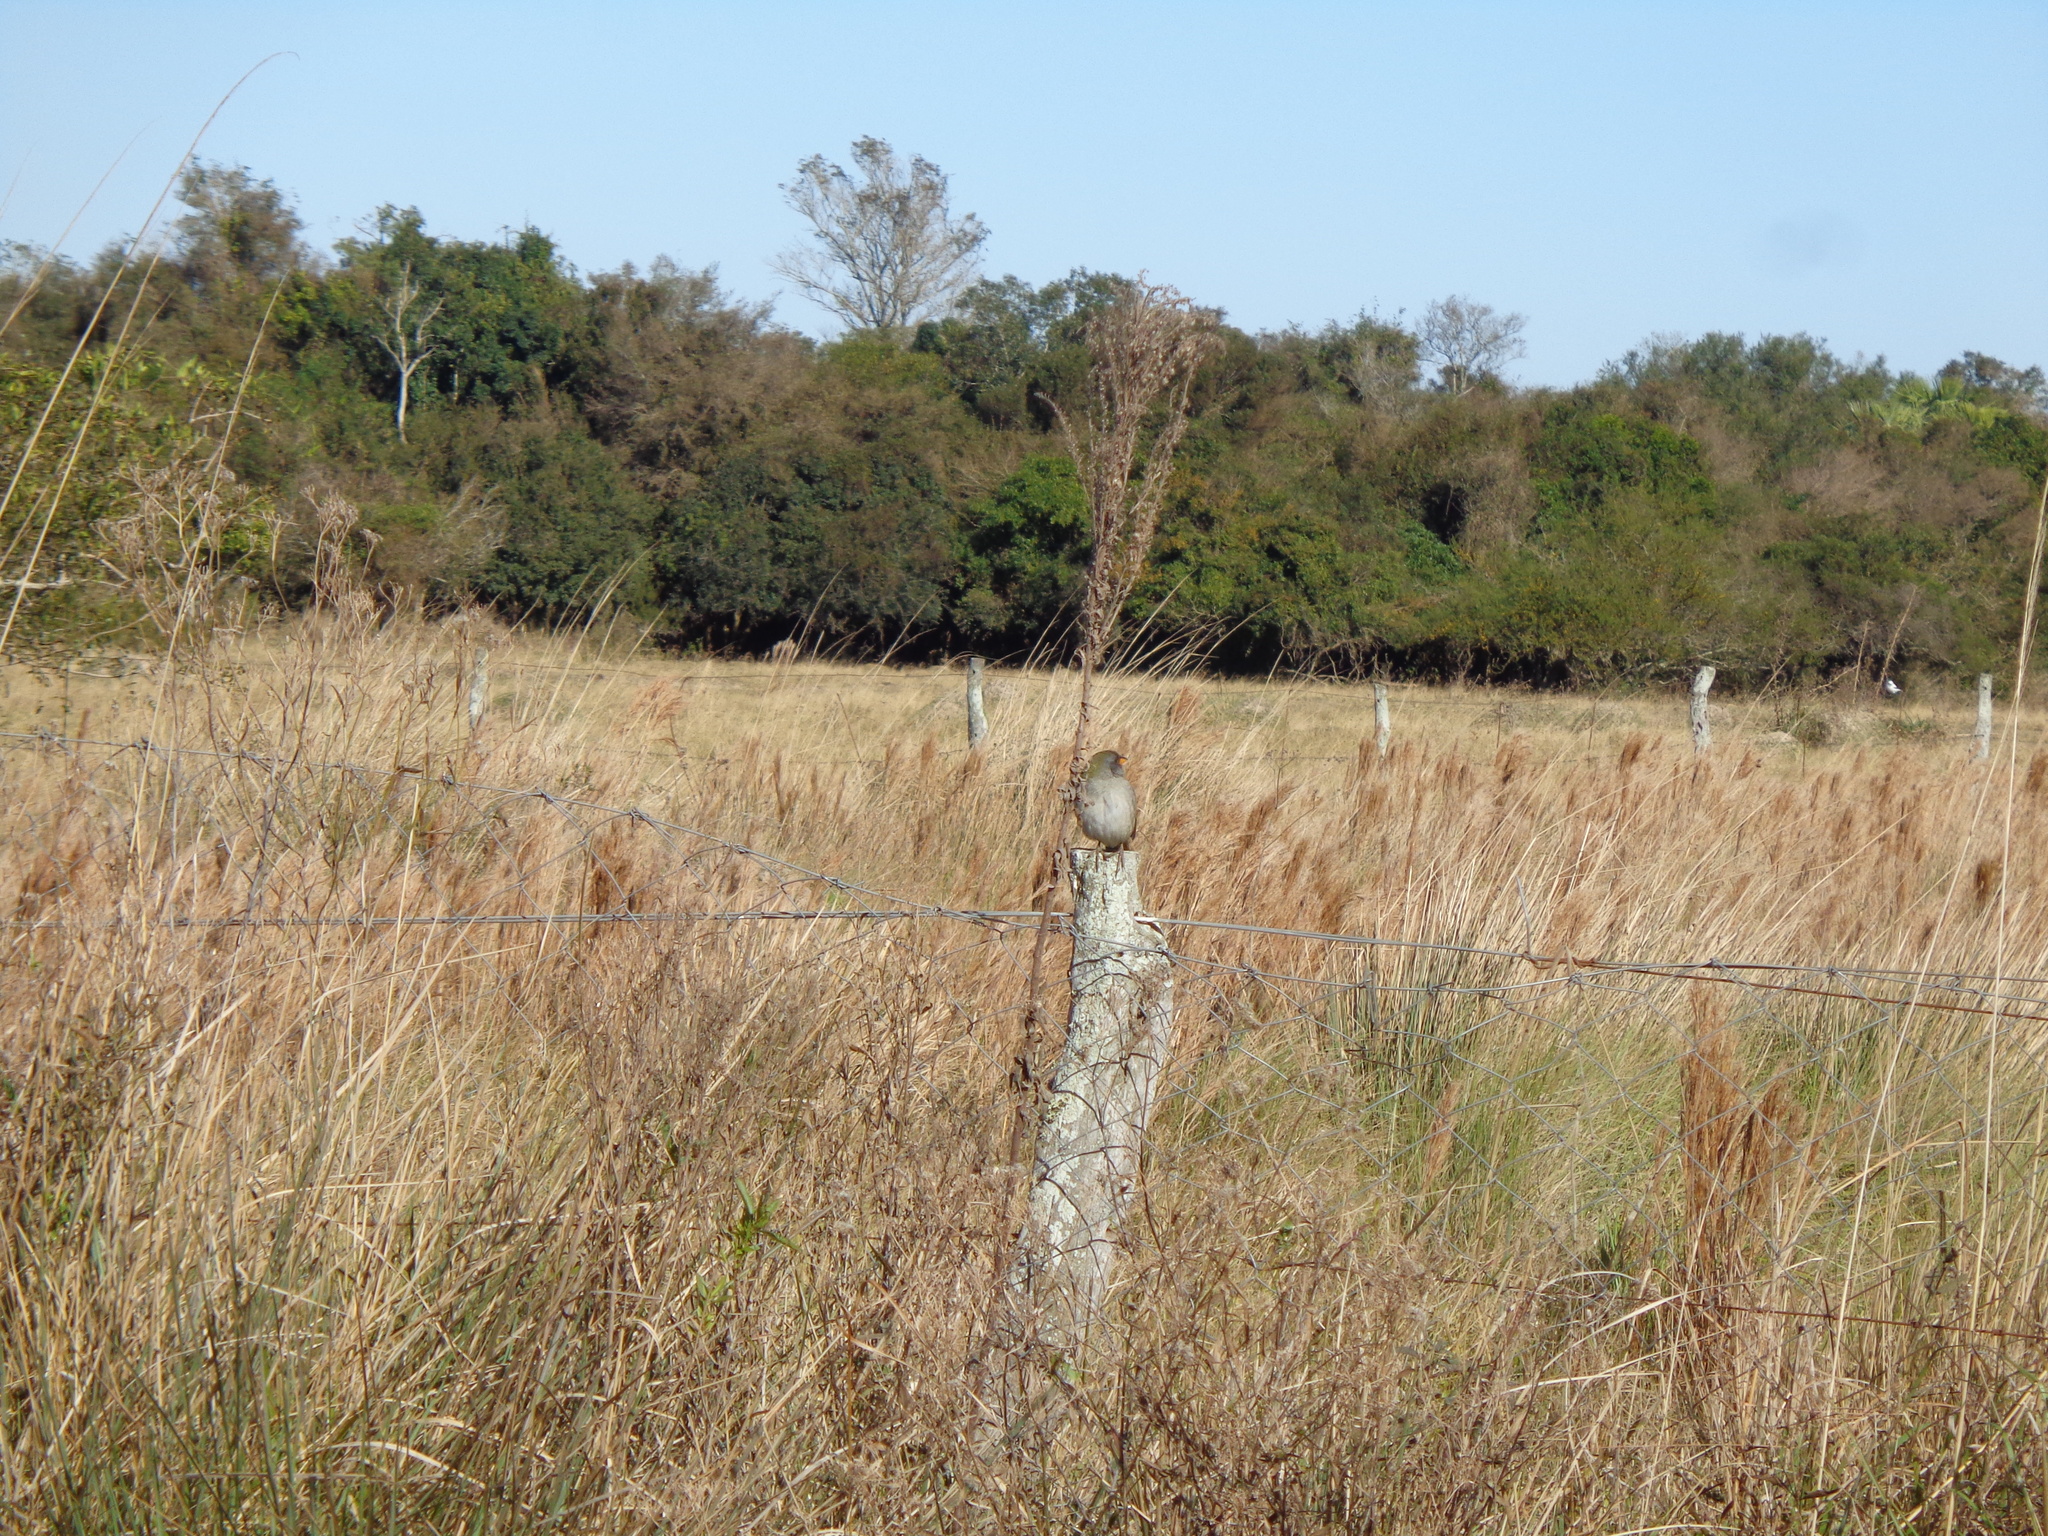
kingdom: Animalia
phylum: Chordata
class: Aves
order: Passeriformes
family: Thraupidae
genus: Embernagra
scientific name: Embernagra platensis
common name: Pampa finch
